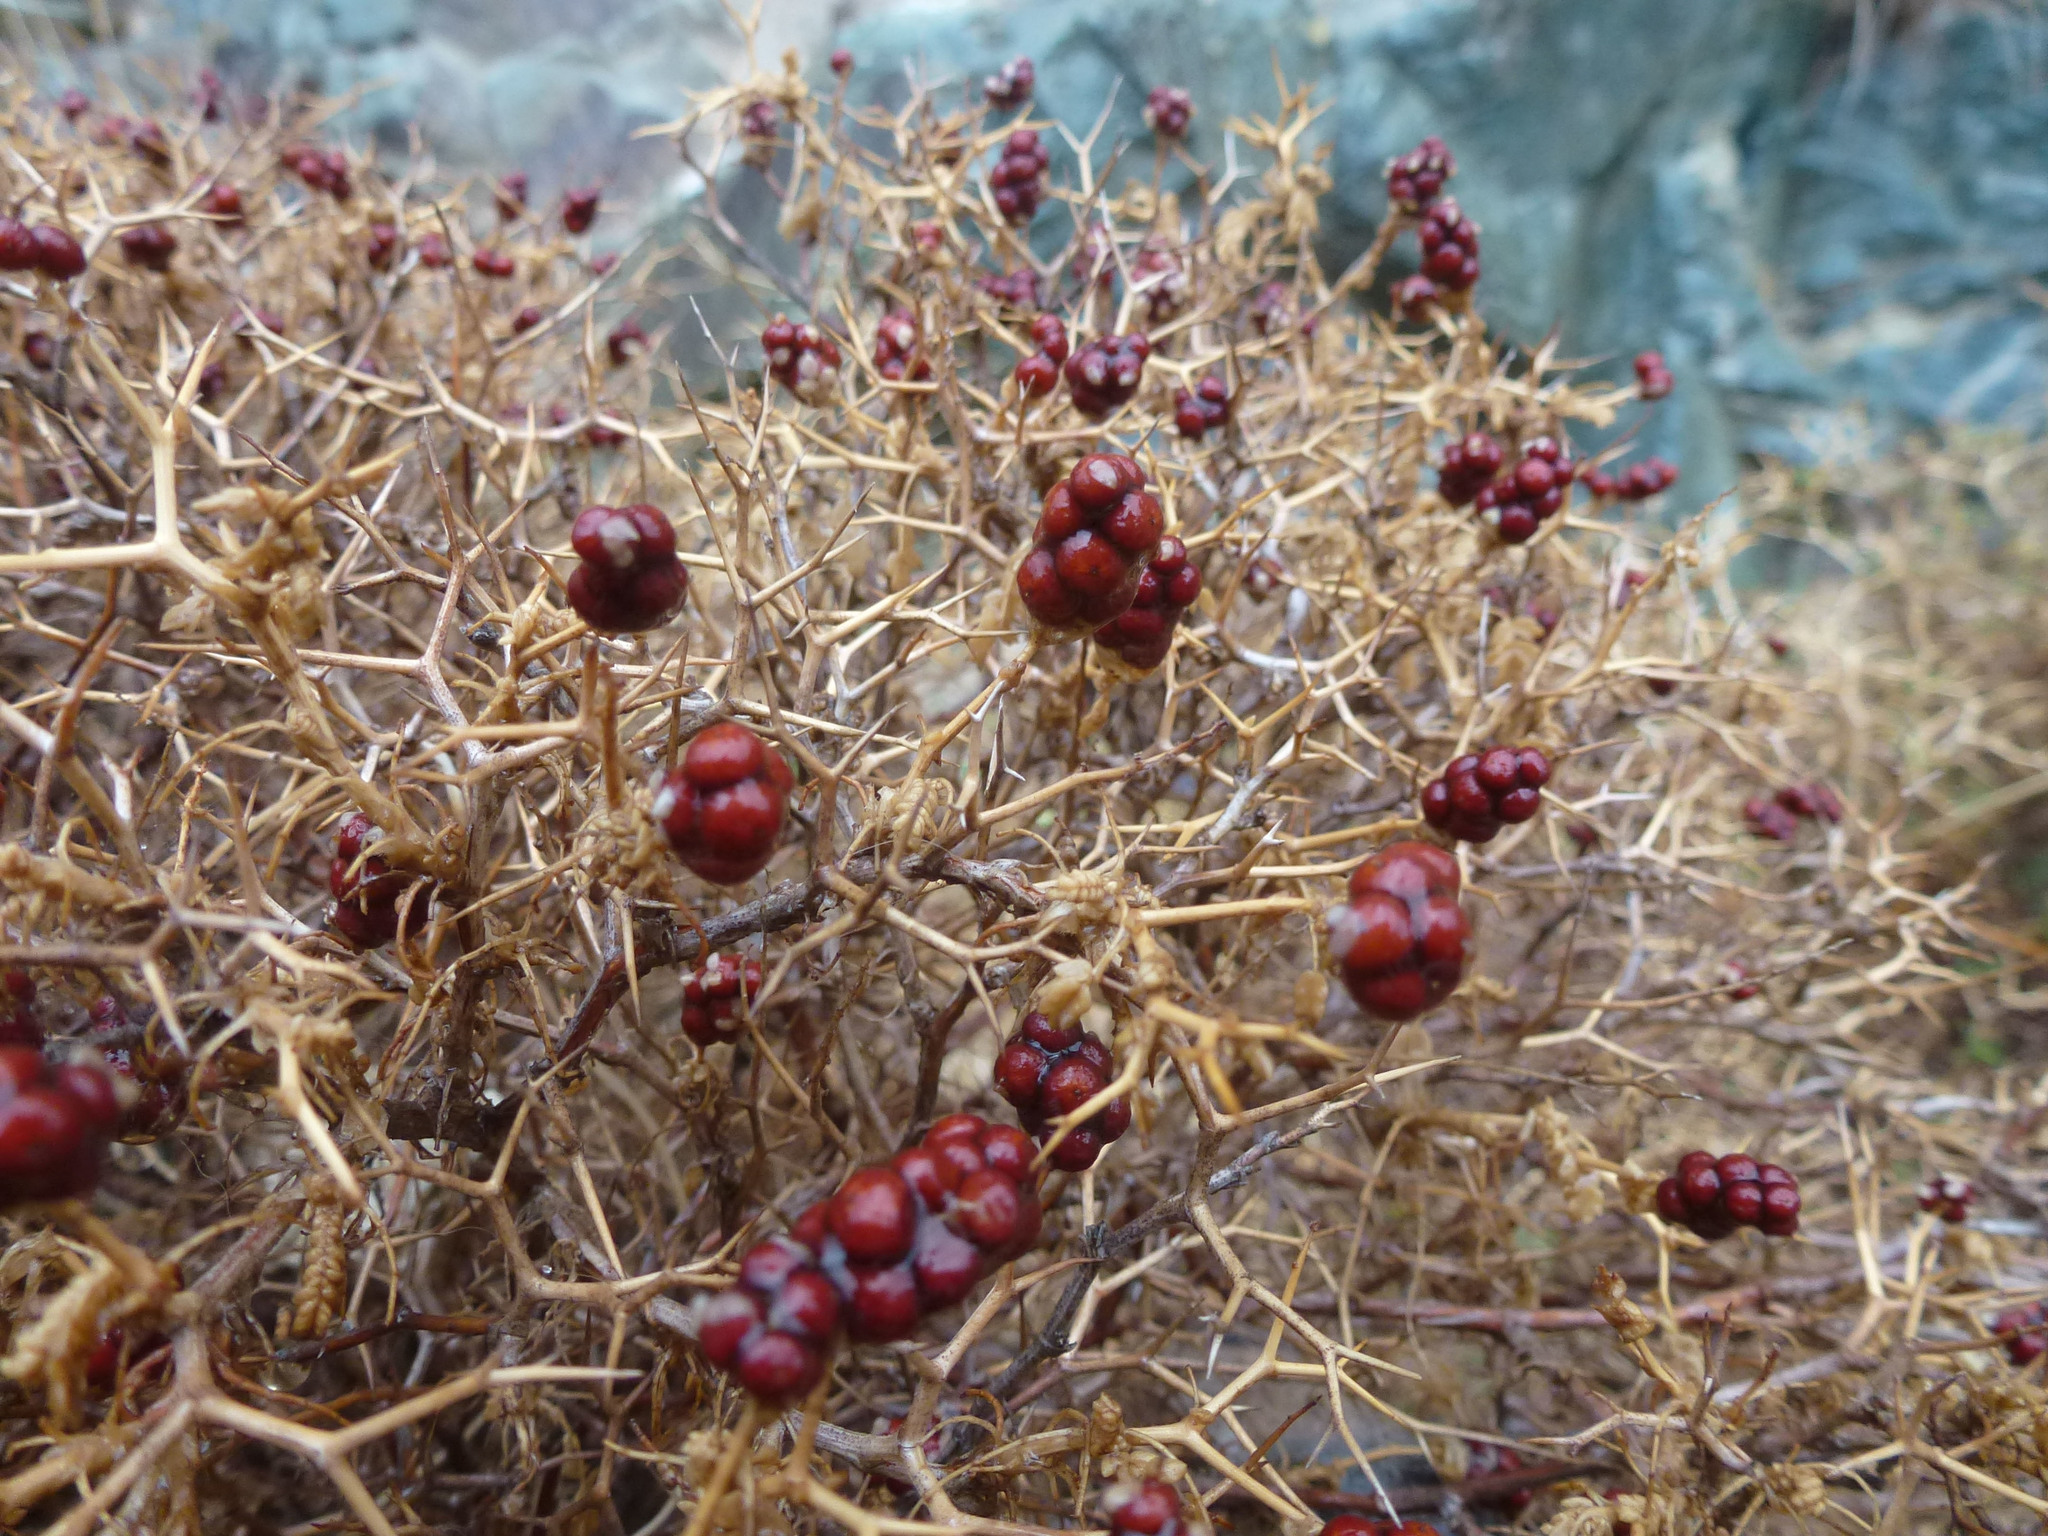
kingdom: Plantae
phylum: Tracheophyta
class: Magnoliopsida
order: Rosales
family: Rosaceae
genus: Sarcopoterium
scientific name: Sarcopoterium spinosum
